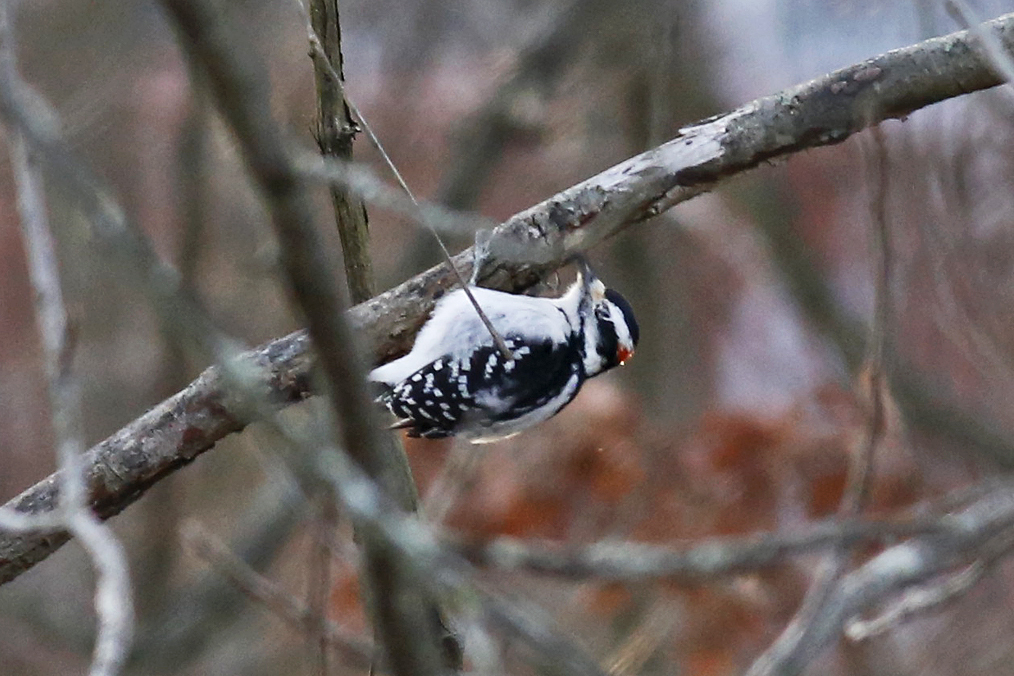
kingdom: Animalia
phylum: Chordata
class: Aves
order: Piciformes
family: Picidae
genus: Leuconotopicus
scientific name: Leuconotopicus villosus
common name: Hairy woodpecker
